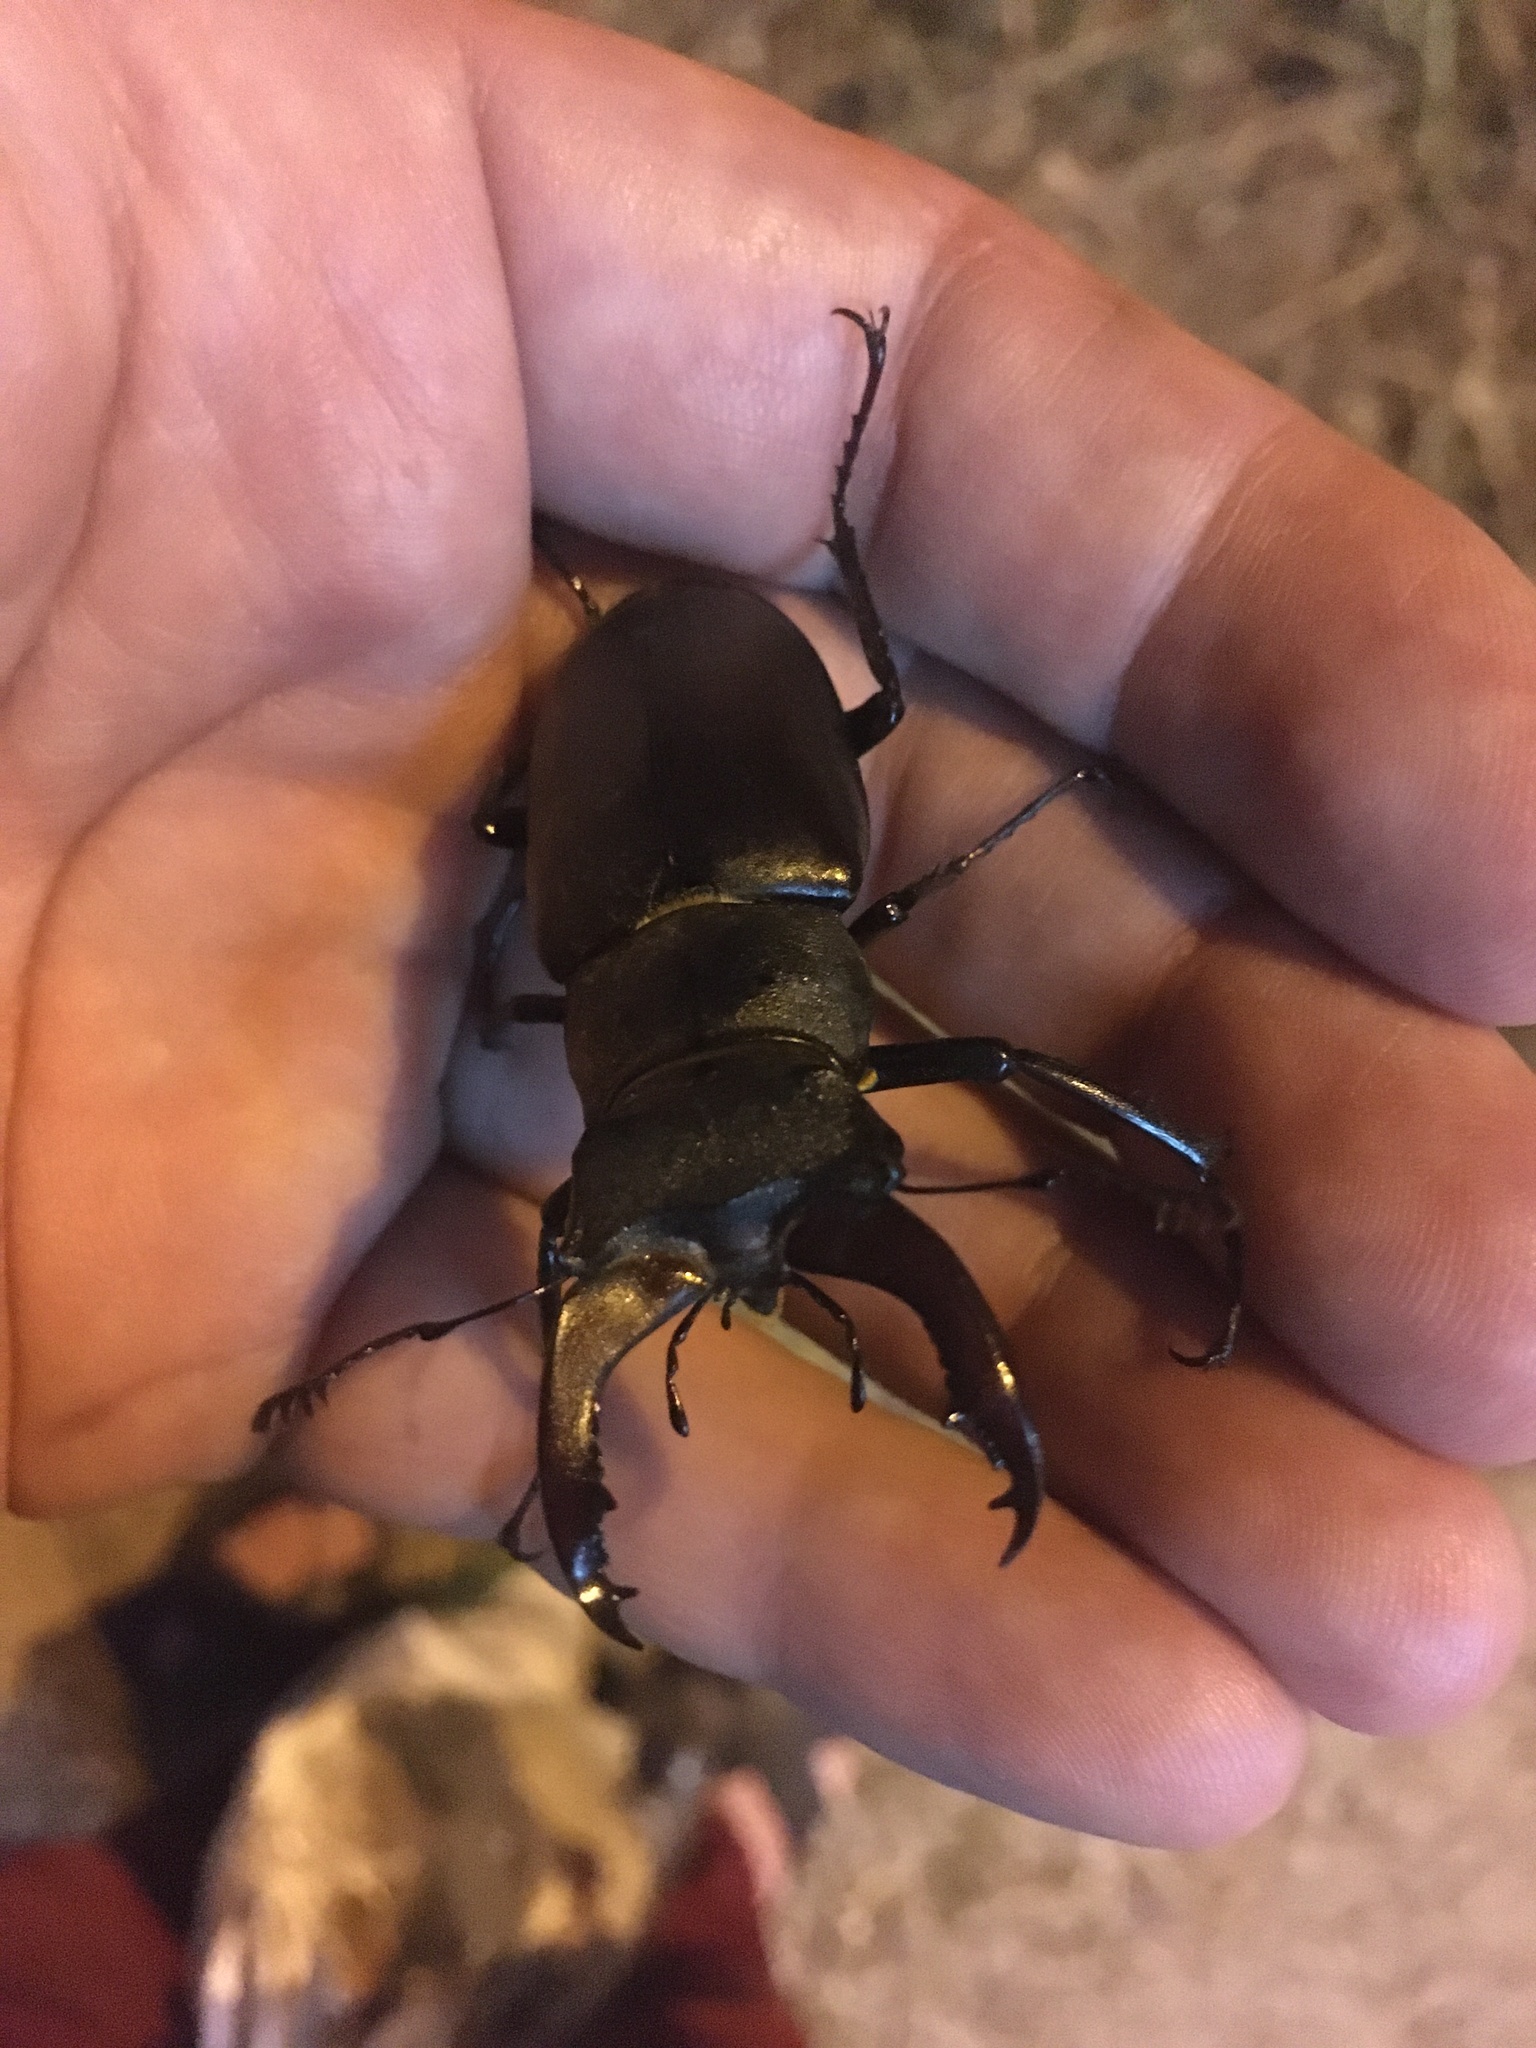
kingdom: Animalia
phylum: Arthropoda
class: Insecta
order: Coleoptera
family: Lucanidae
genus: Lucanus
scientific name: Lucanus cervus
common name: Stag beetle
